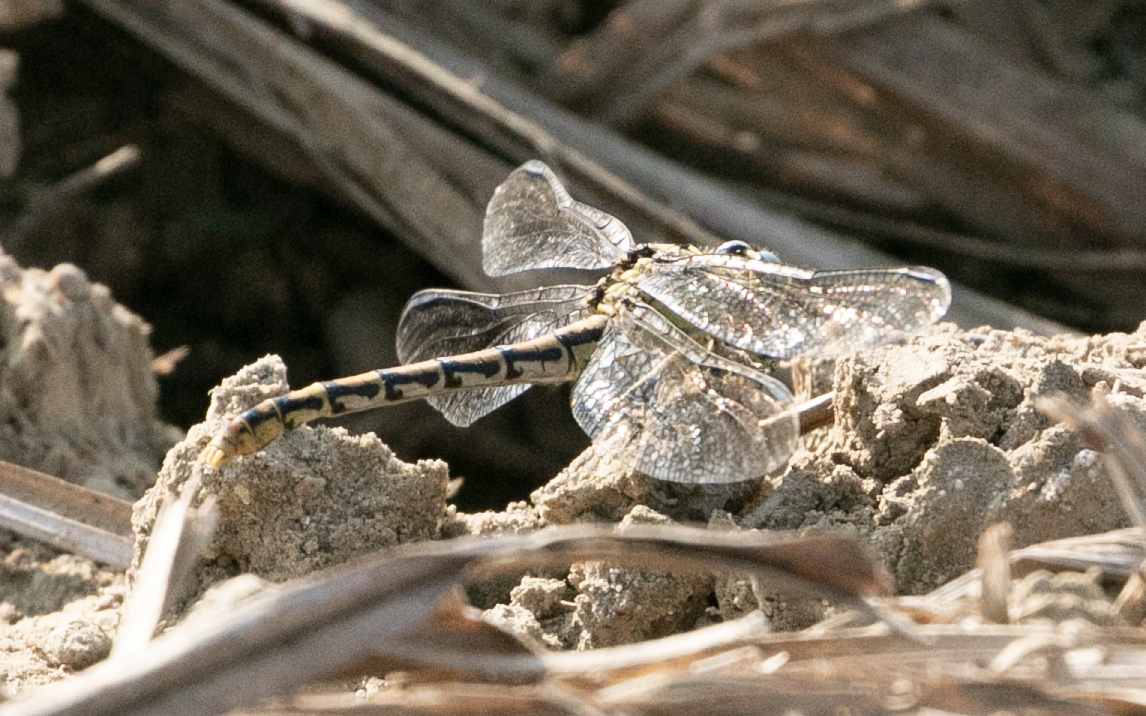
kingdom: Animalia
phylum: Arthropoda
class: Insecta
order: Odonata
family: Gomphidae
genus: Onychogomphus
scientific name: Onychogomphus forcipatus
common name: Small pincertail
